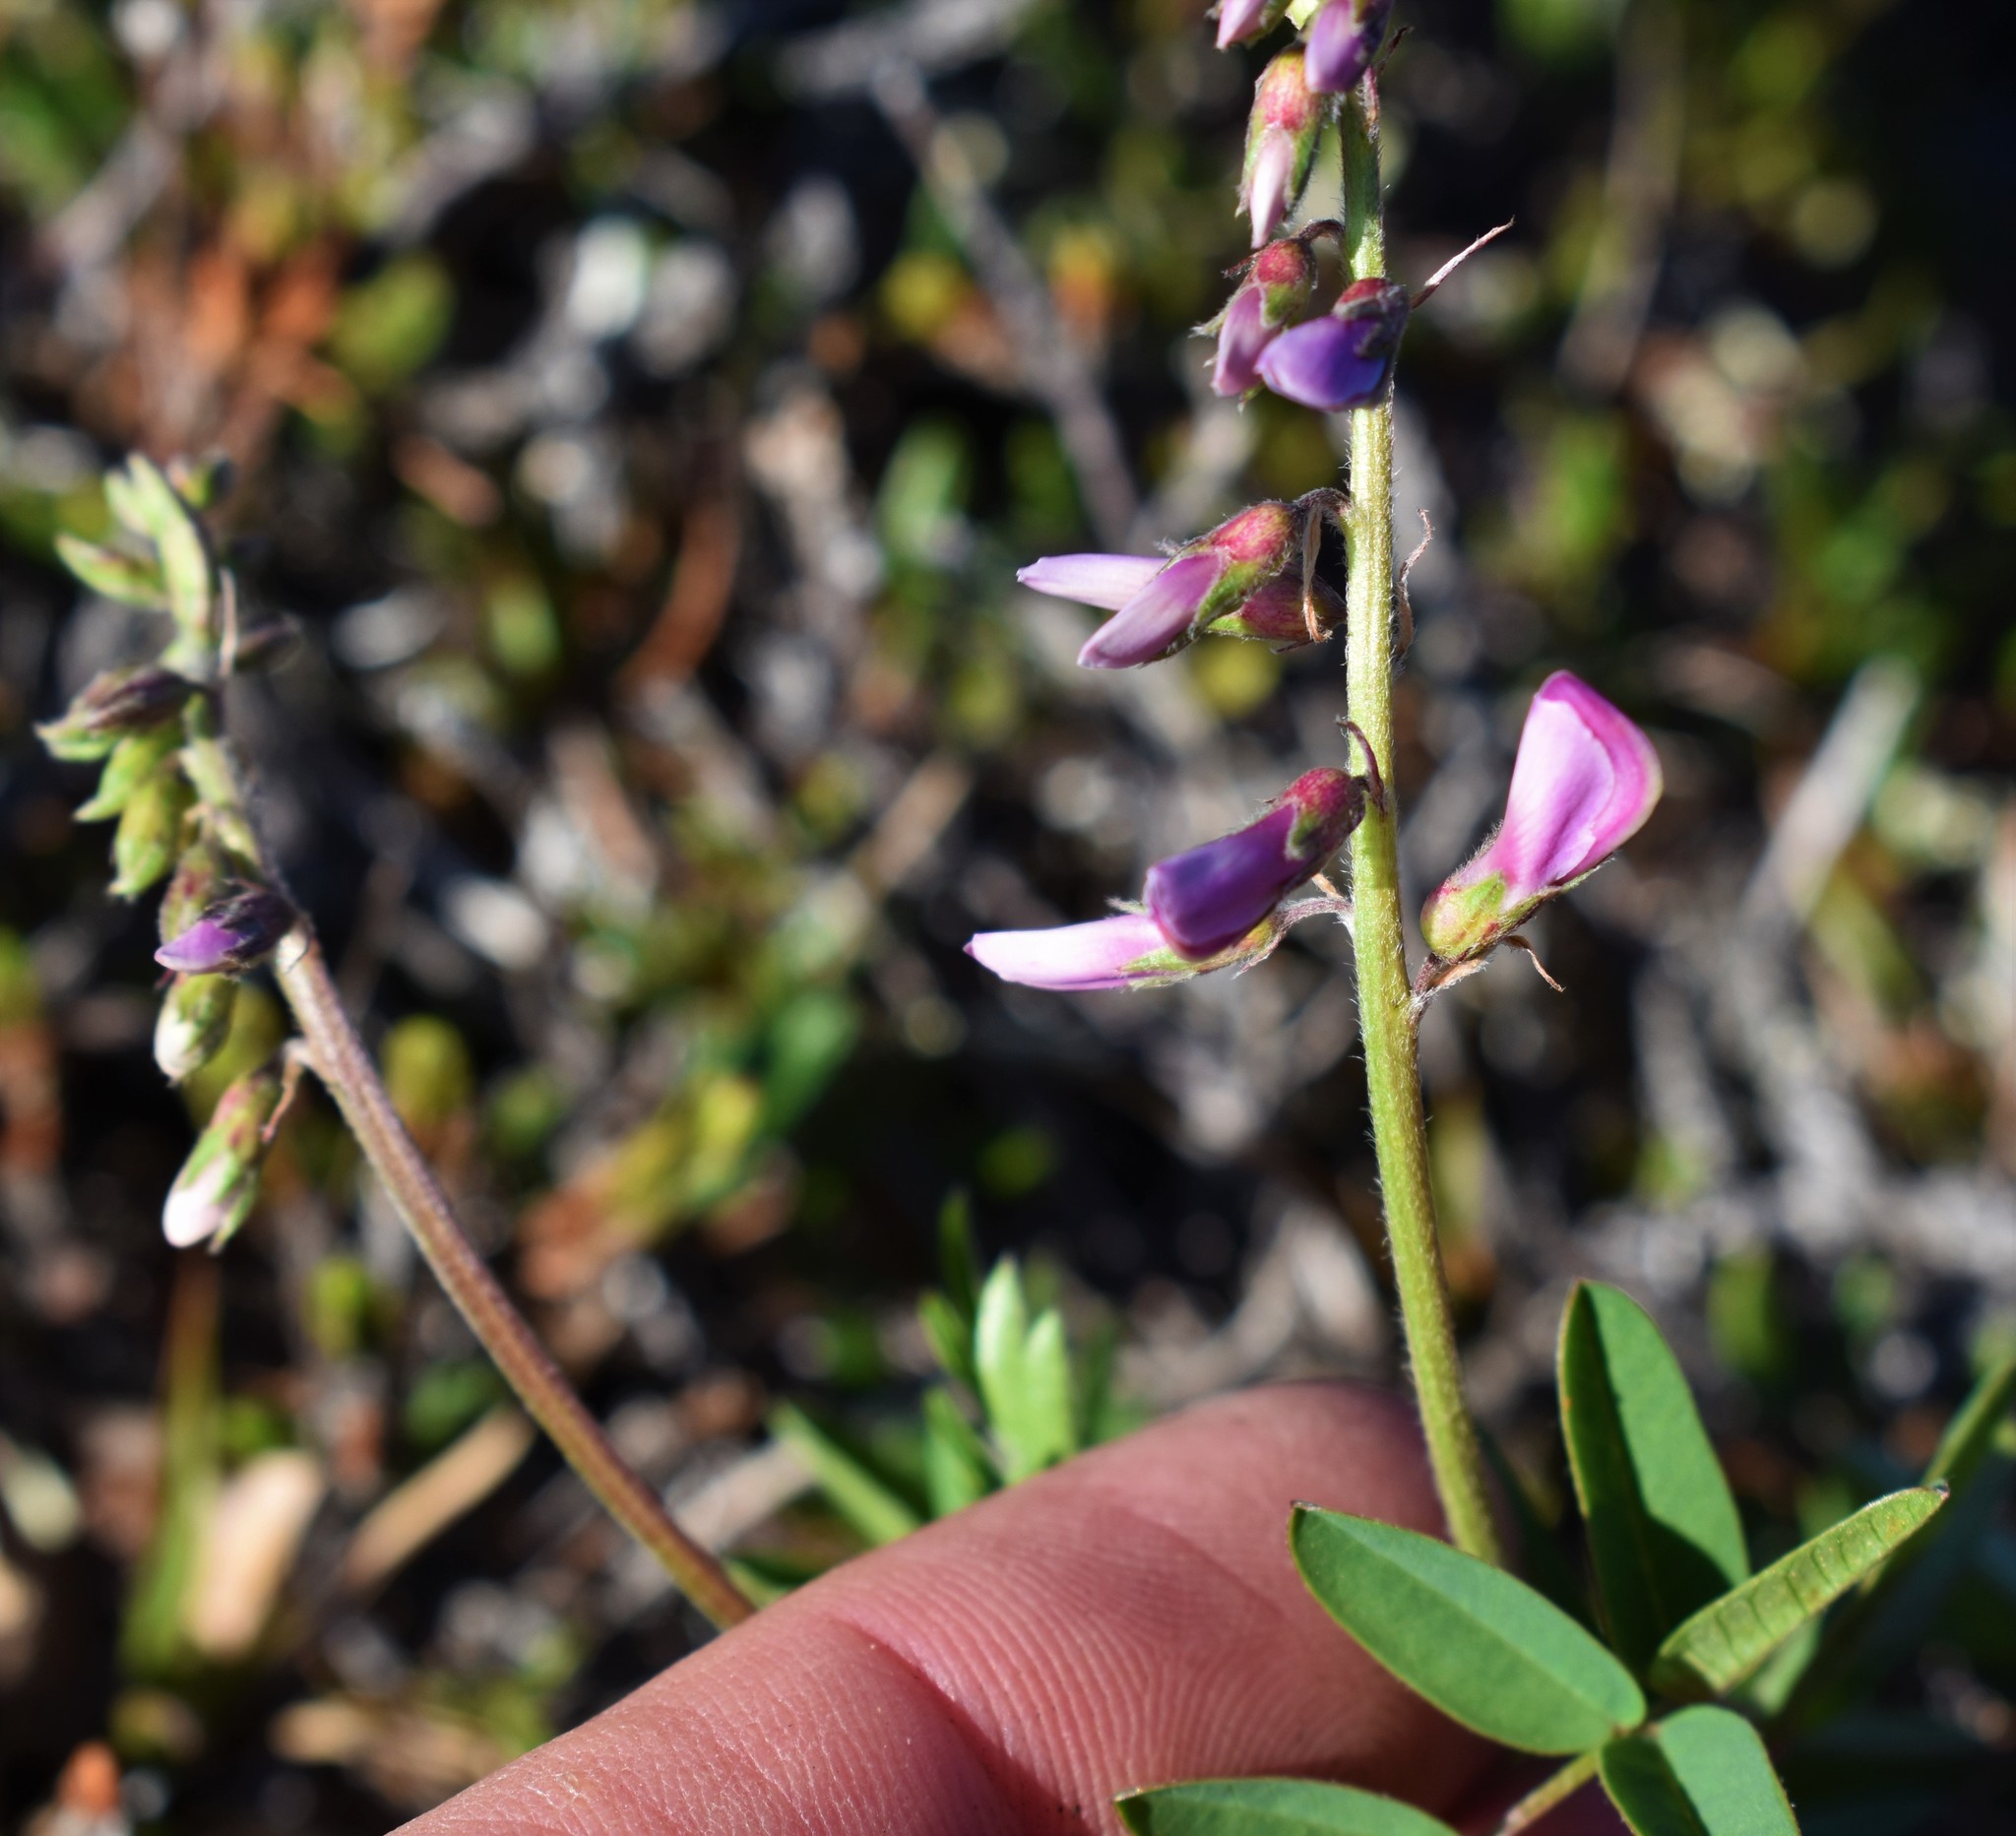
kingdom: Plantae
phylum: Tracheophyta
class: Magnoliopsida
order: Fabales
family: Fabaceae
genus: Hedysarum
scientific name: Hedysarum
